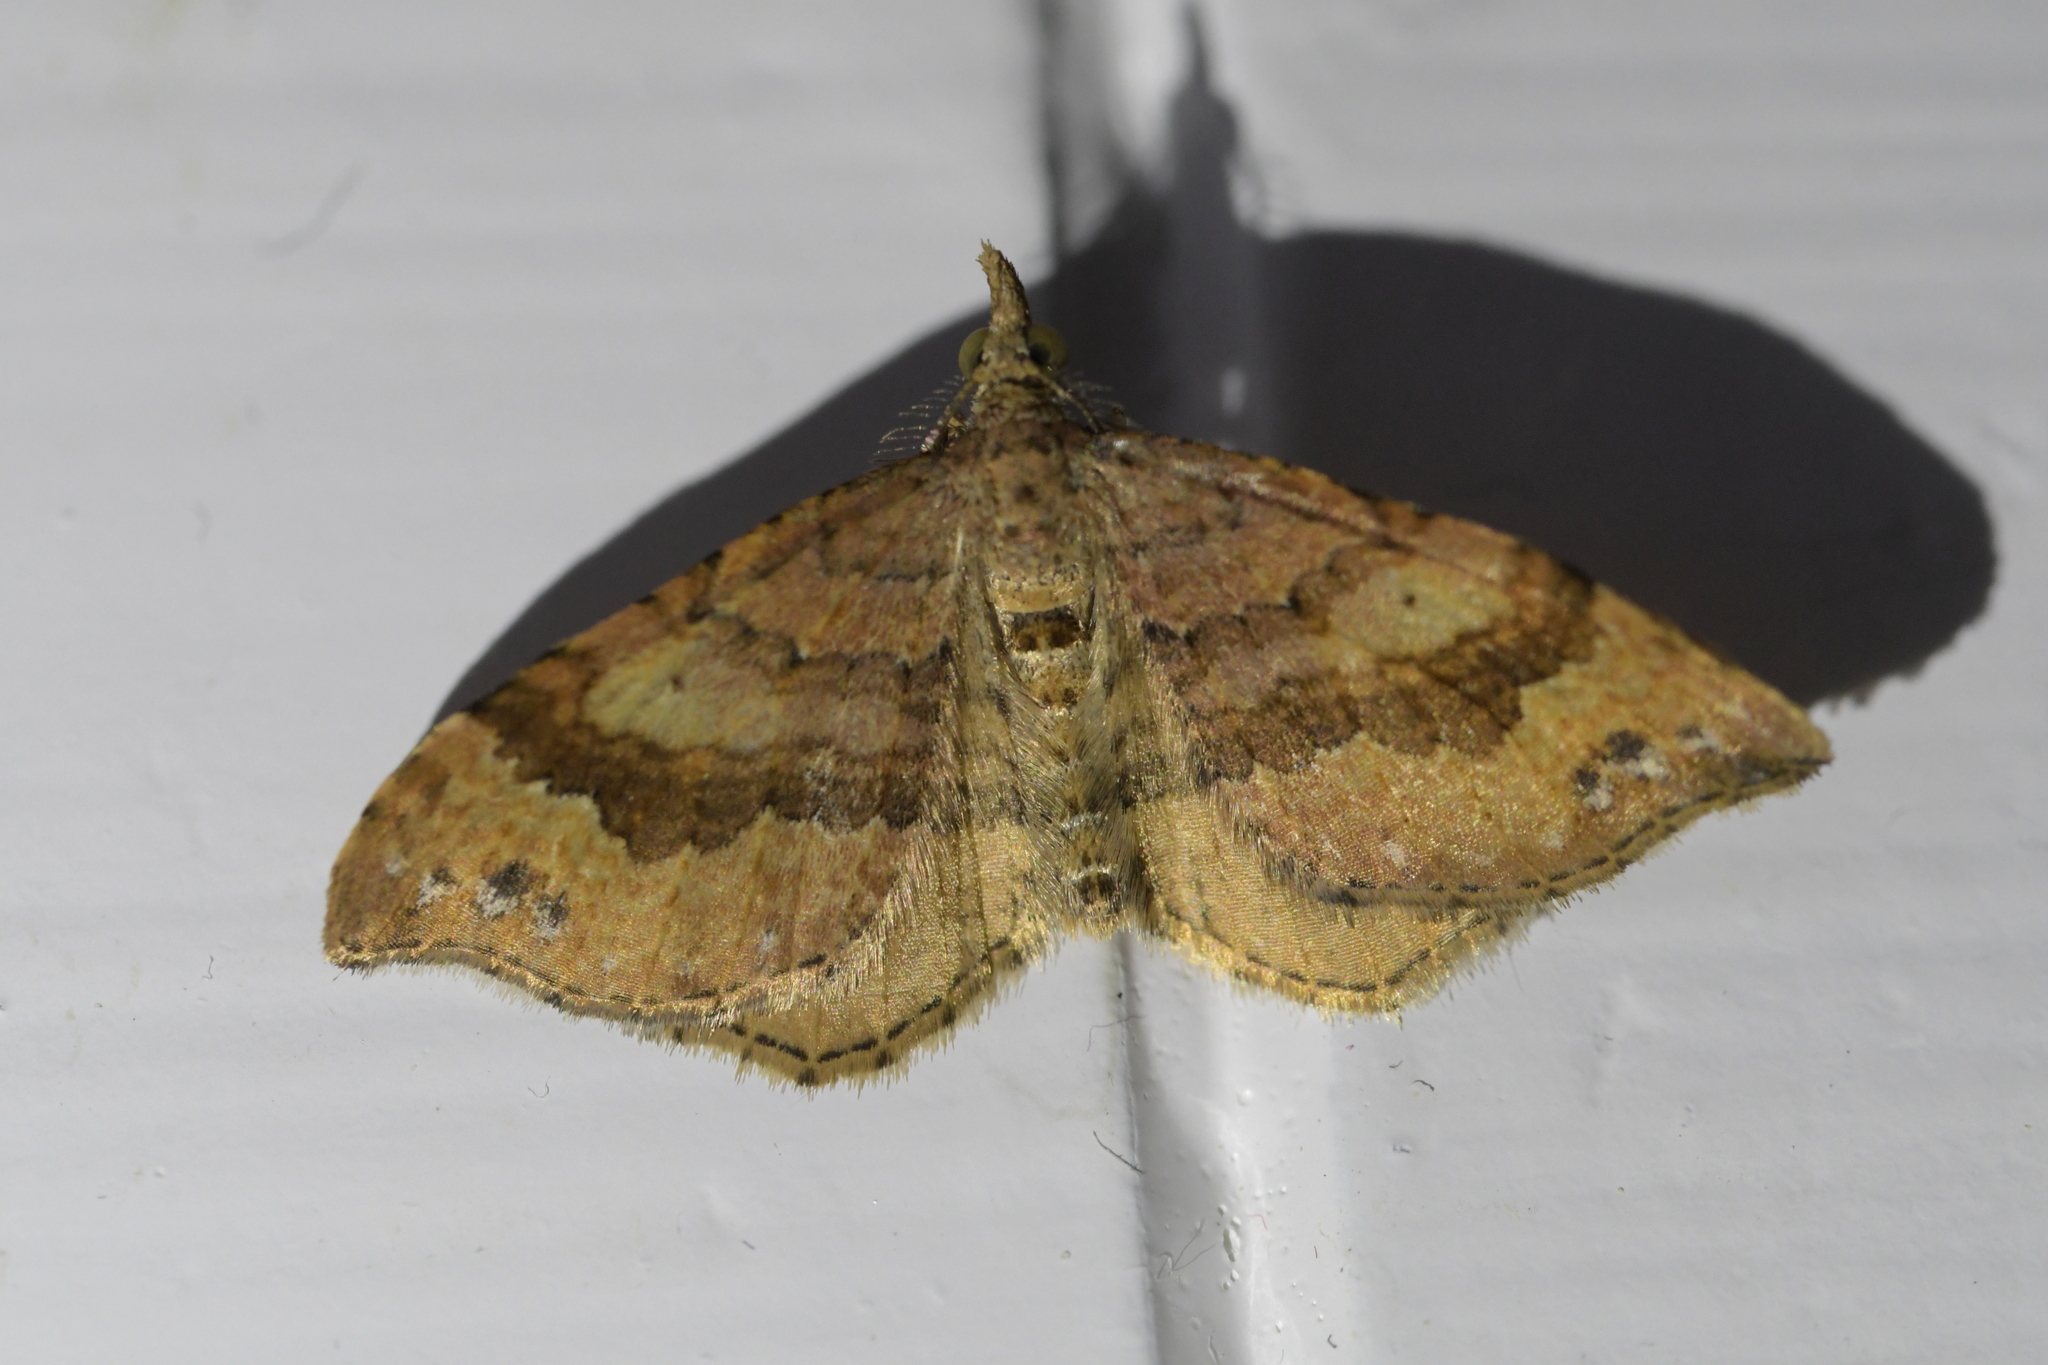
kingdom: Animalia
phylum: Arthropoda
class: Insecta
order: Lepidoptera
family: Geometridae
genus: Homodotis
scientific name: Homodotis megaspilata
